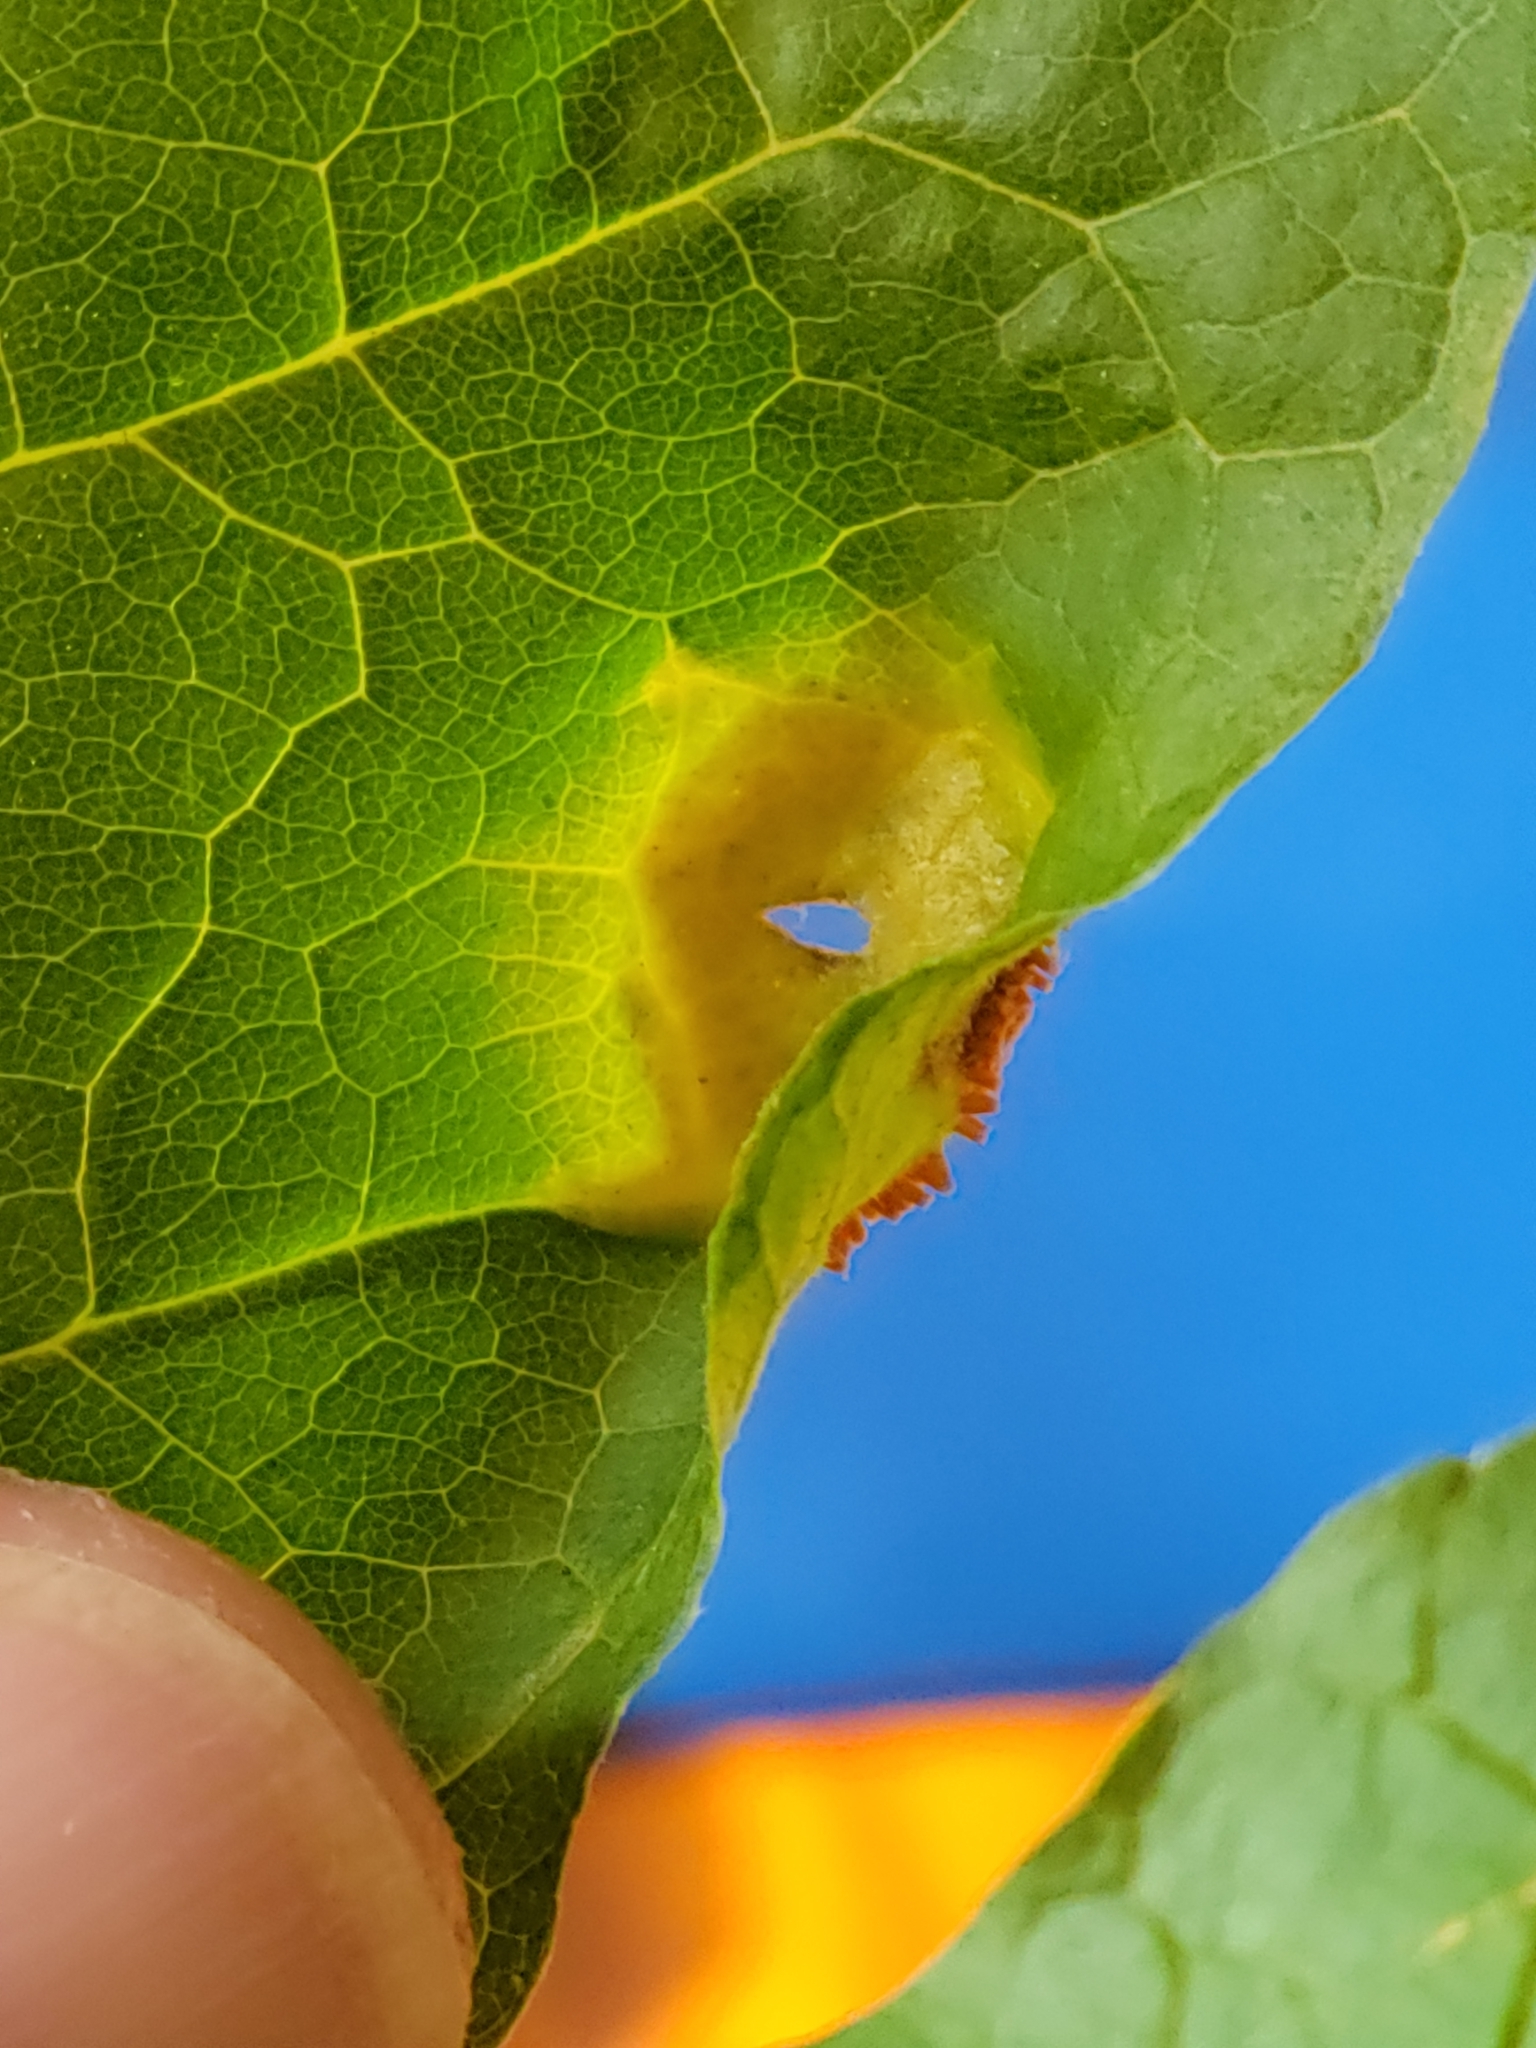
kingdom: Fungi
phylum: Basidiomycota
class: Pucciniomycetes
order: Pucciniales
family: Pucciniaceae
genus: Puccinia
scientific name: Puccinia sparganioidis
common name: Ash rust
